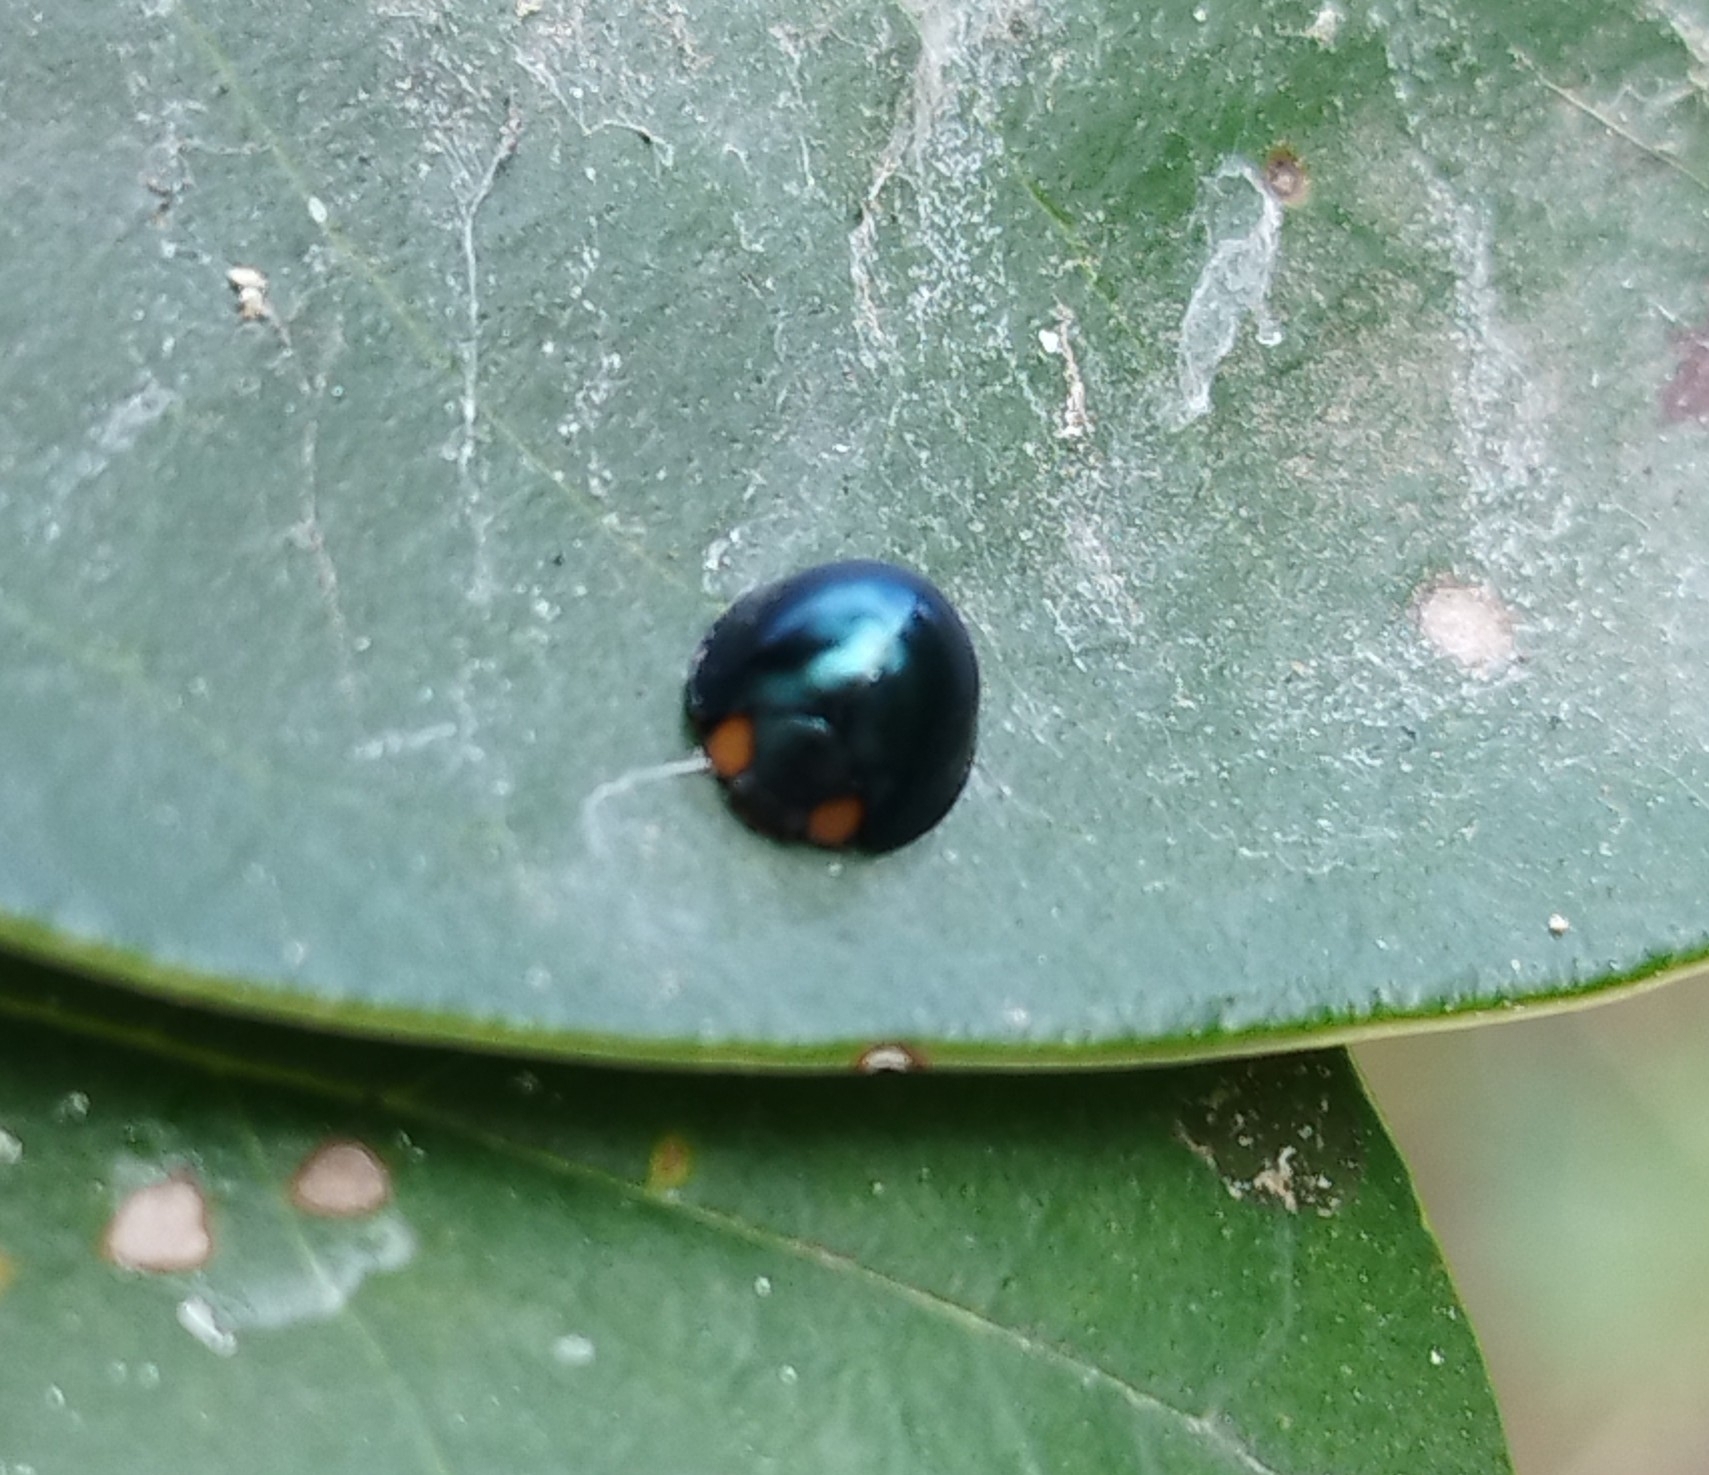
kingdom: Animalia
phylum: Arthropoda
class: Insecta
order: Coleoptera
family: Coccinellidae
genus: Curinus
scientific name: Curinus coeruleus
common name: Ladybird beetle
